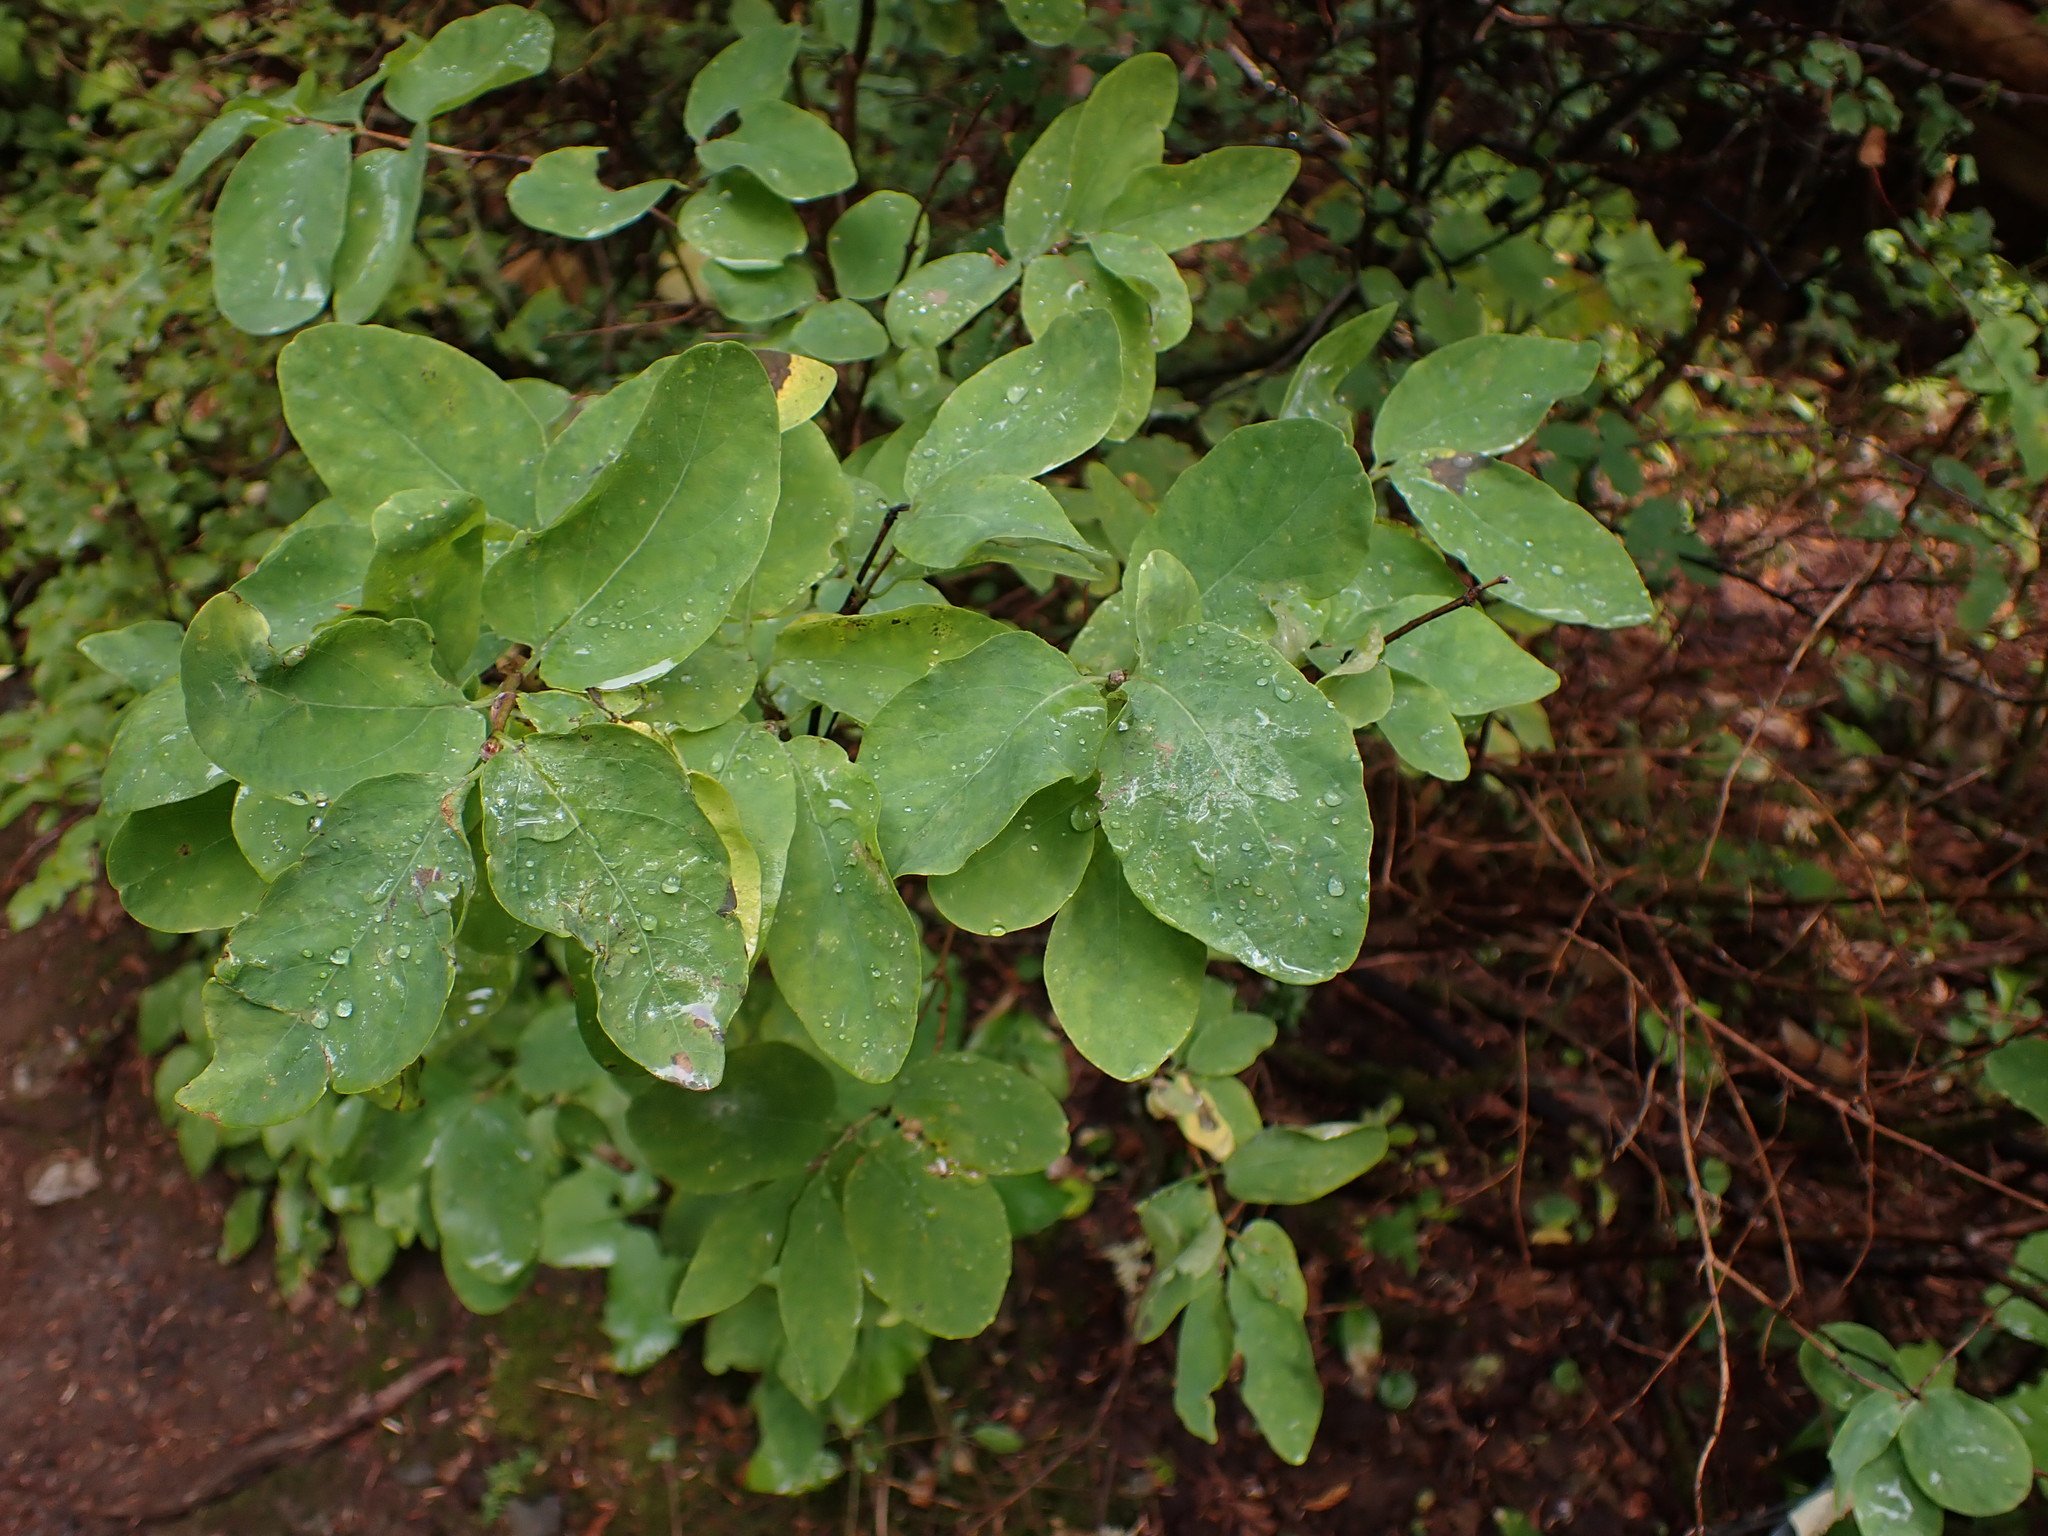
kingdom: Plantae
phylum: Tracheophyta
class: Magnoliopsida
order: Dipsacales
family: Caprifoliaceae
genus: Lonicera
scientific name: Lonicera utahensis
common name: Utah honeysuckle
